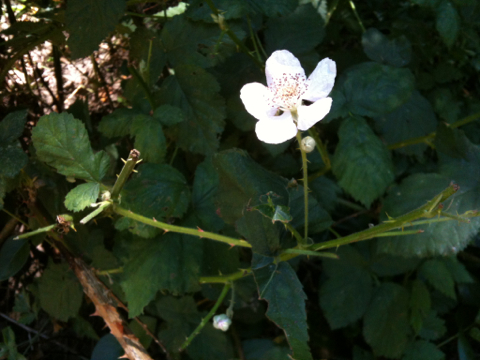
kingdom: Plantae
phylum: Tracheophyta
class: Magnoliopsida
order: Rosales
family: Rosaceae
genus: Rubus
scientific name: Rubus armeniacus
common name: Himalayan blackberry
